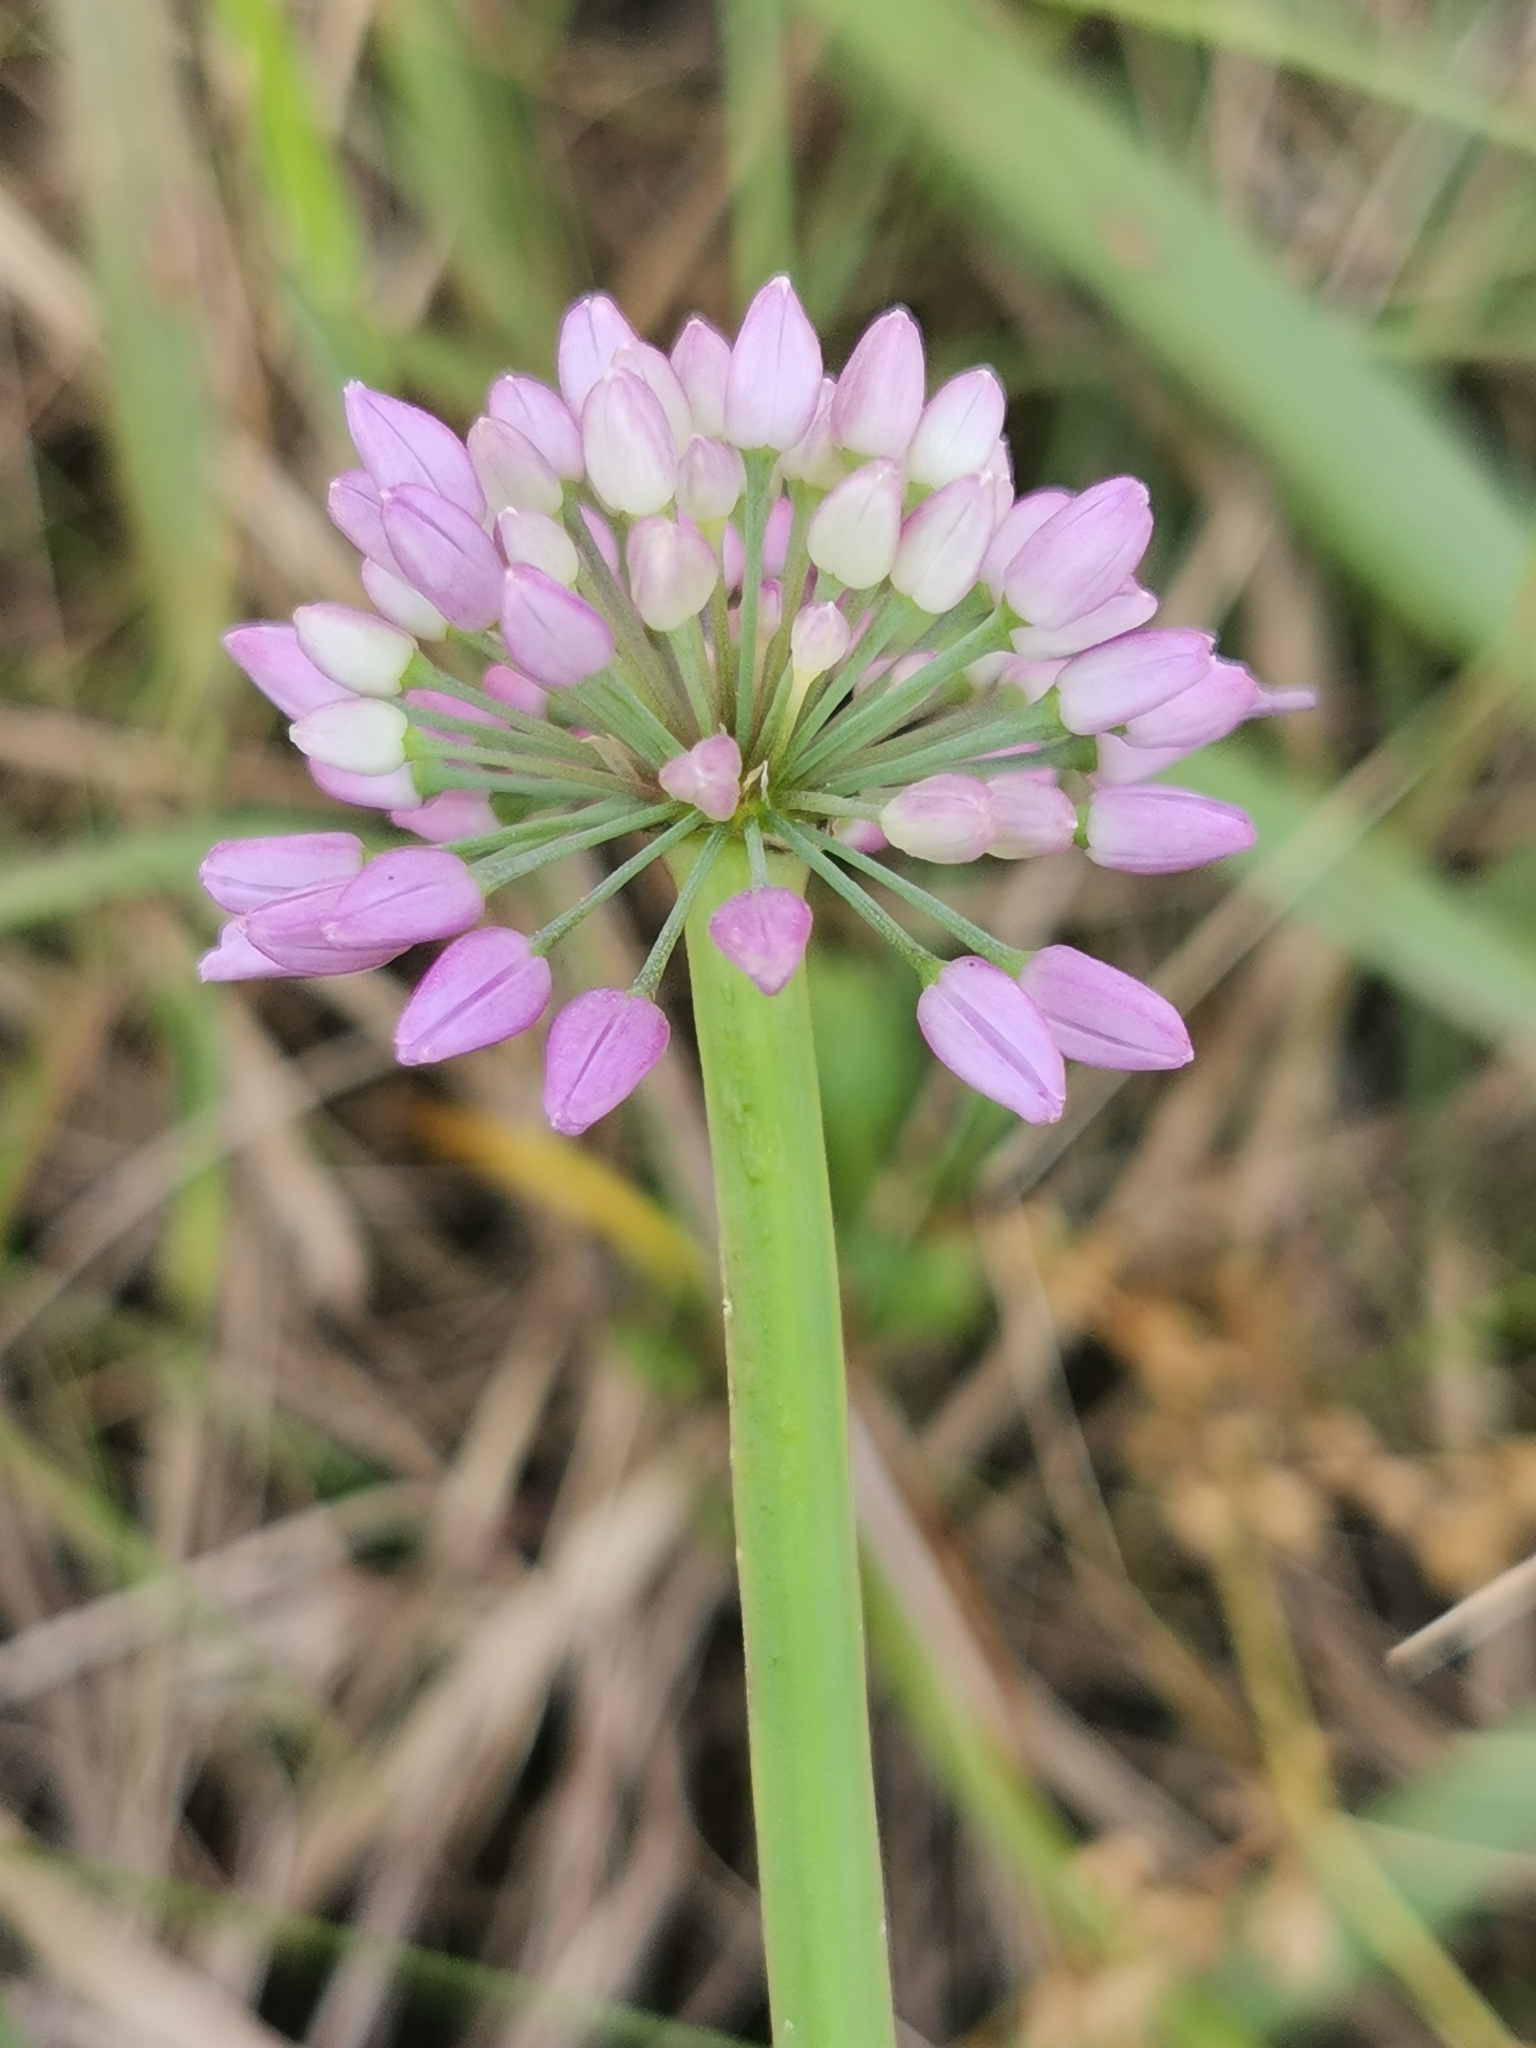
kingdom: Plantae
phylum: Tracheophyta
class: Liliopsida
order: Asparagales
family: Amaryllidaceae
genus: Allium
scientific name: Allium spirale
